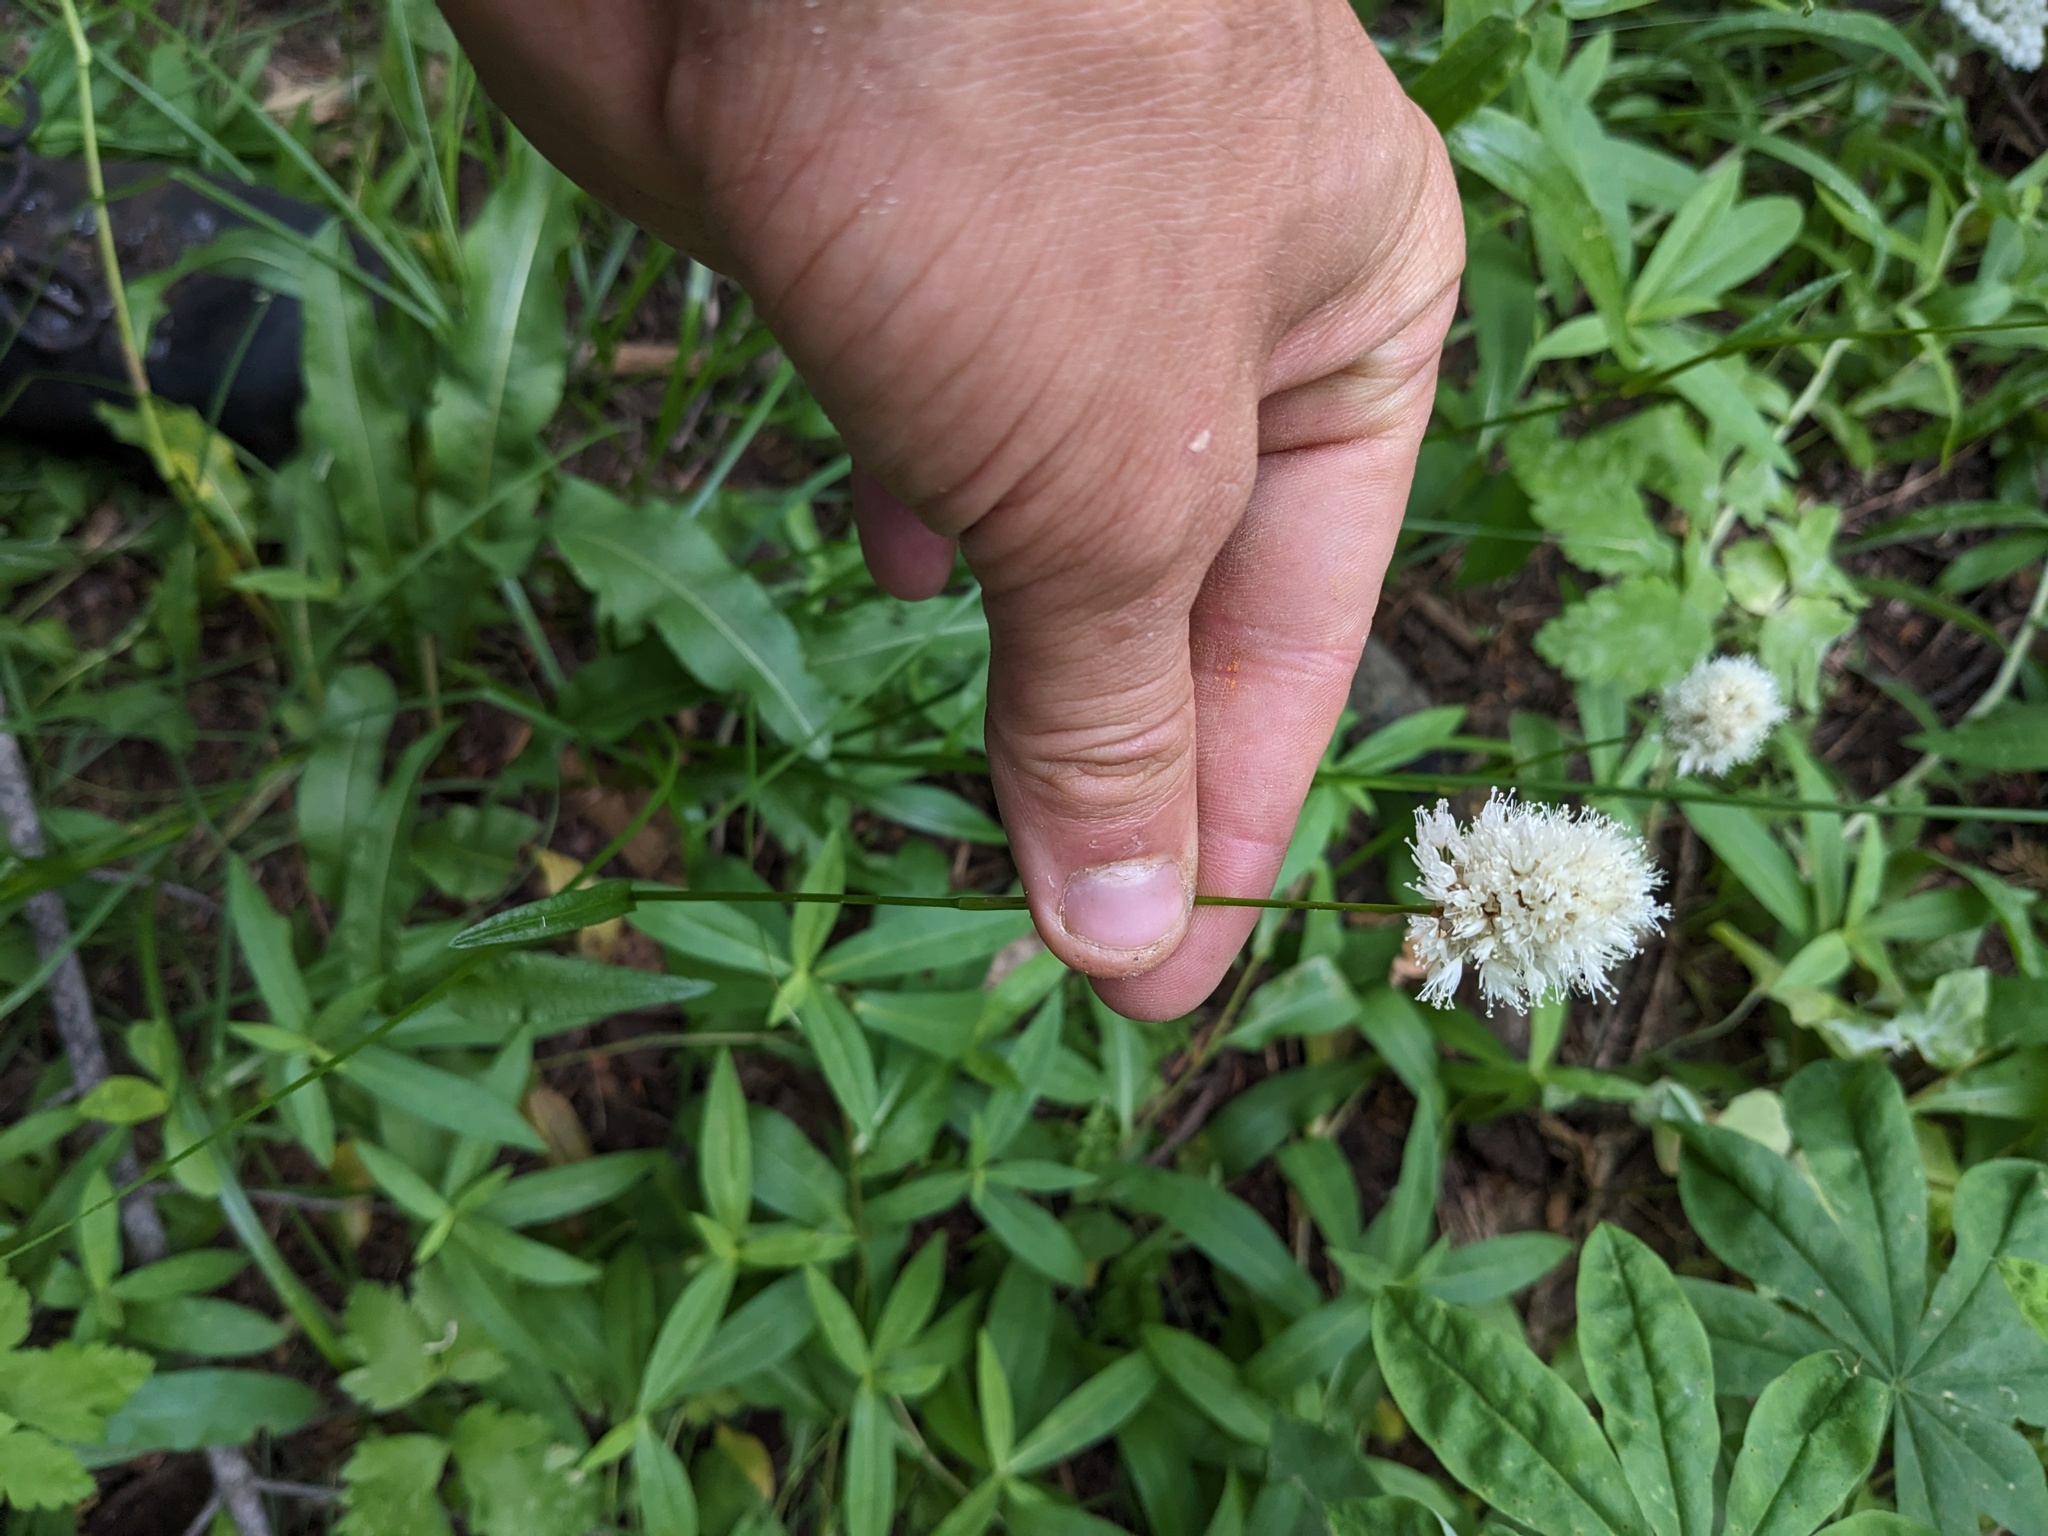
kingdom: Plantae
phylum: Tracheophyta
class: Magnoliopsida
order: Caryophyllales
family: Polygonaceae
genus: Bistorta
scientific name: Bistorta bistortoides
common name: American bistort
